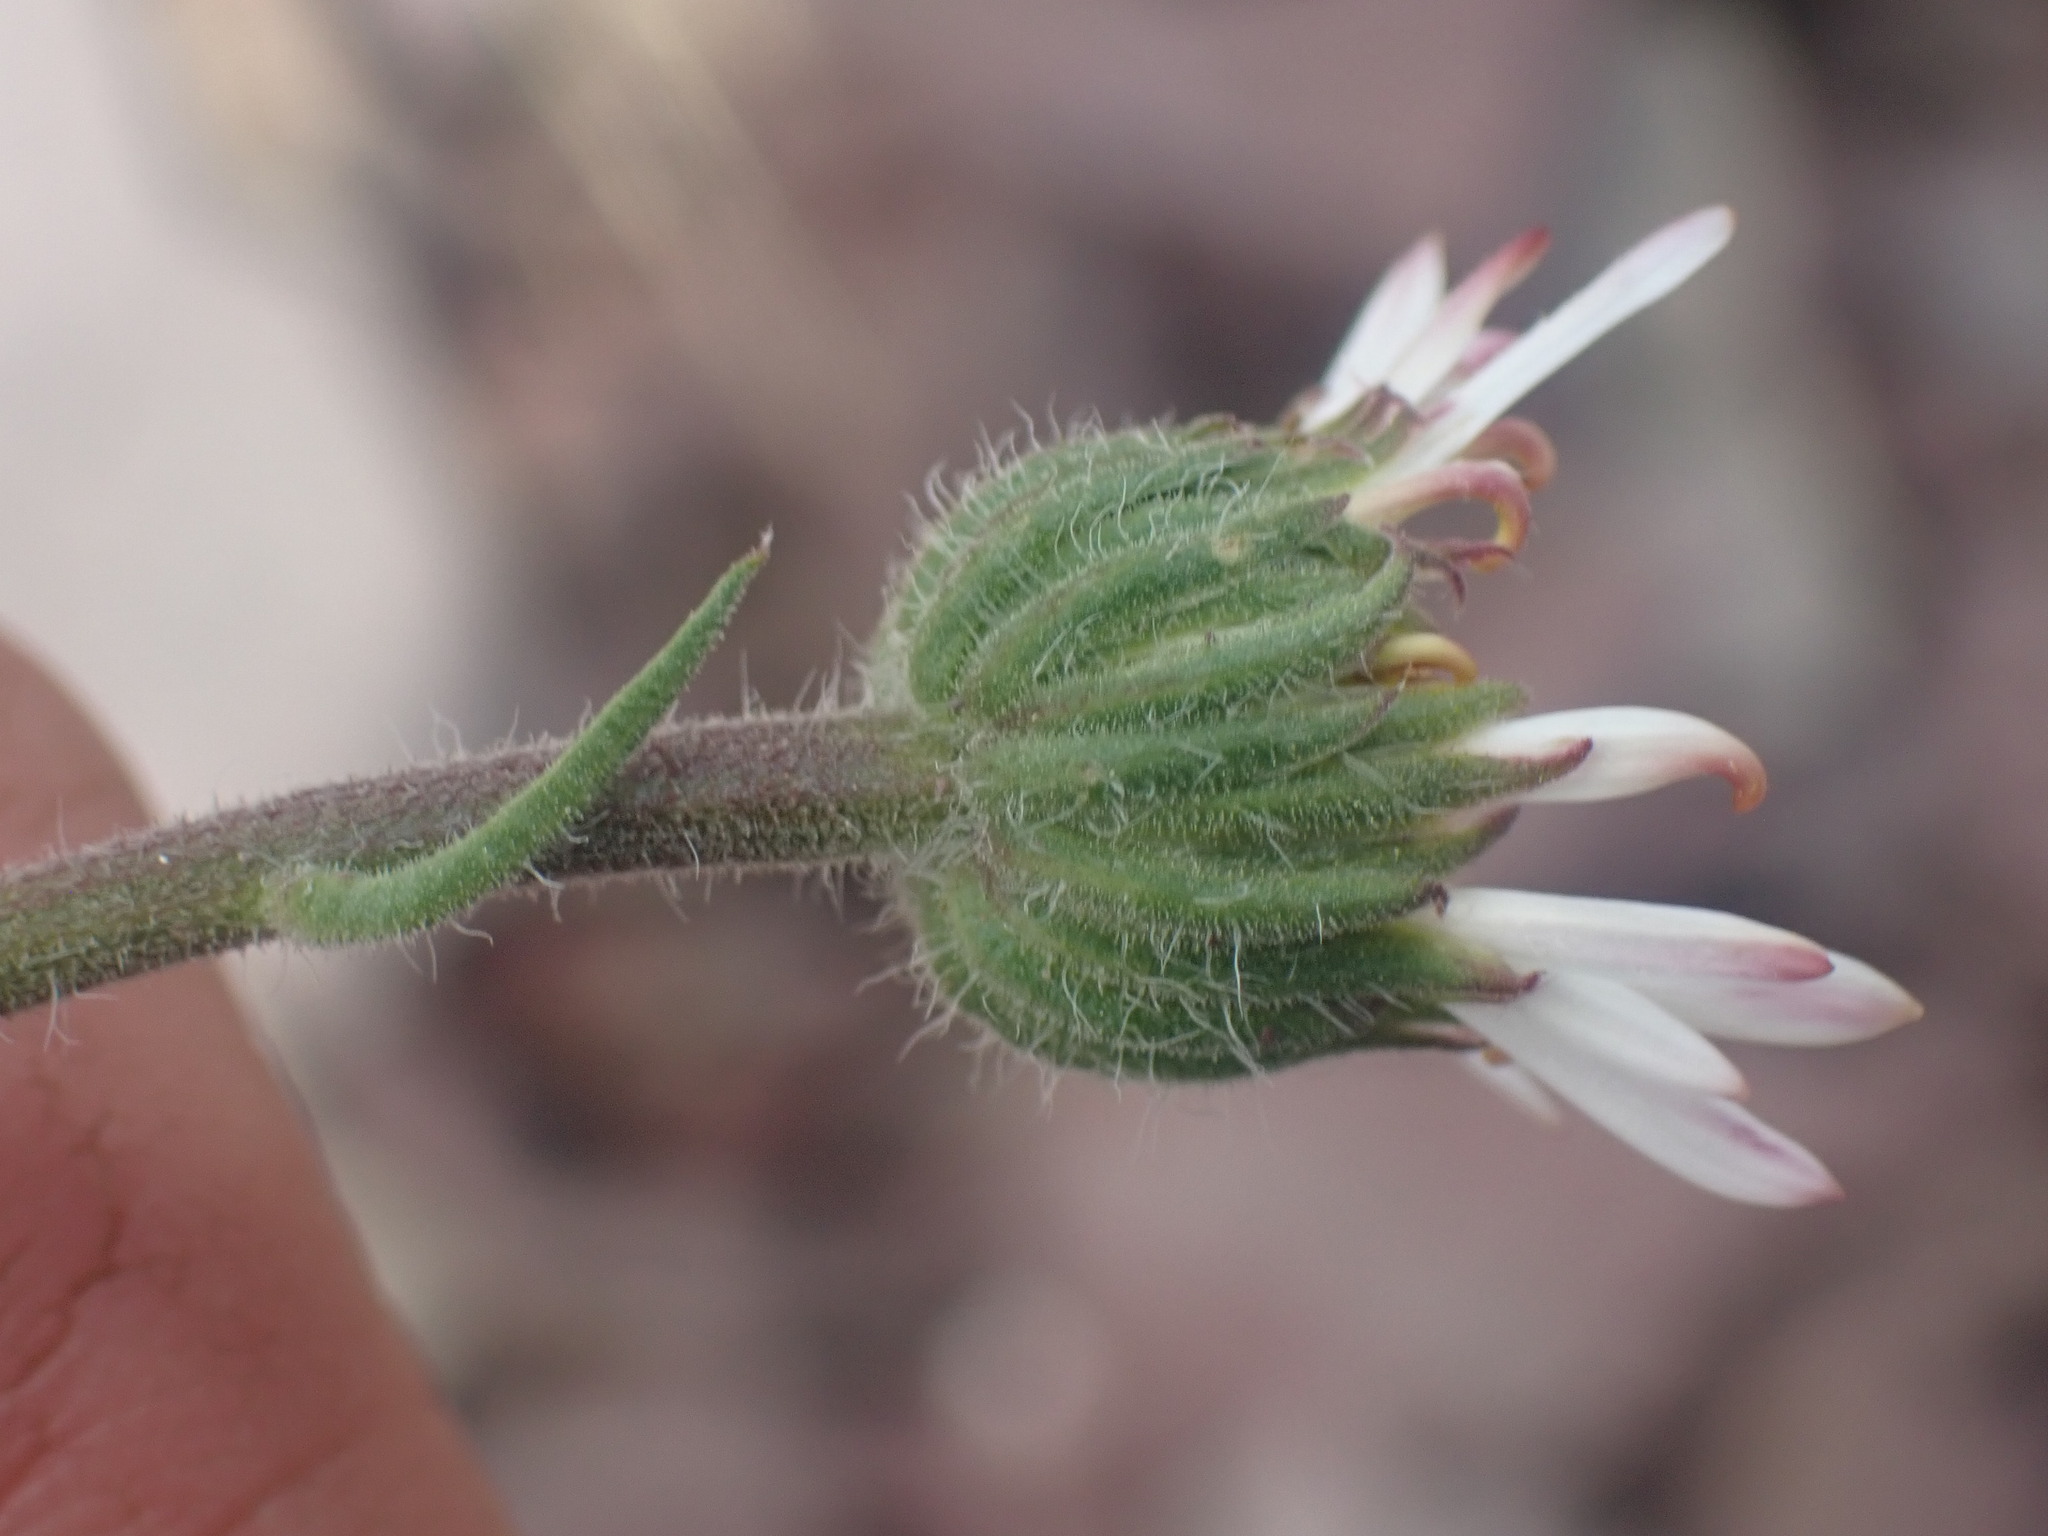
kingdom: Plantae
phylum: Tracheophyta
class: Magnoliopsida
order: Asterales
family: Asteraceae
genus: Erigeron
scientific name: Erigeron compositus
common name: Dwarf mountain fleabane
